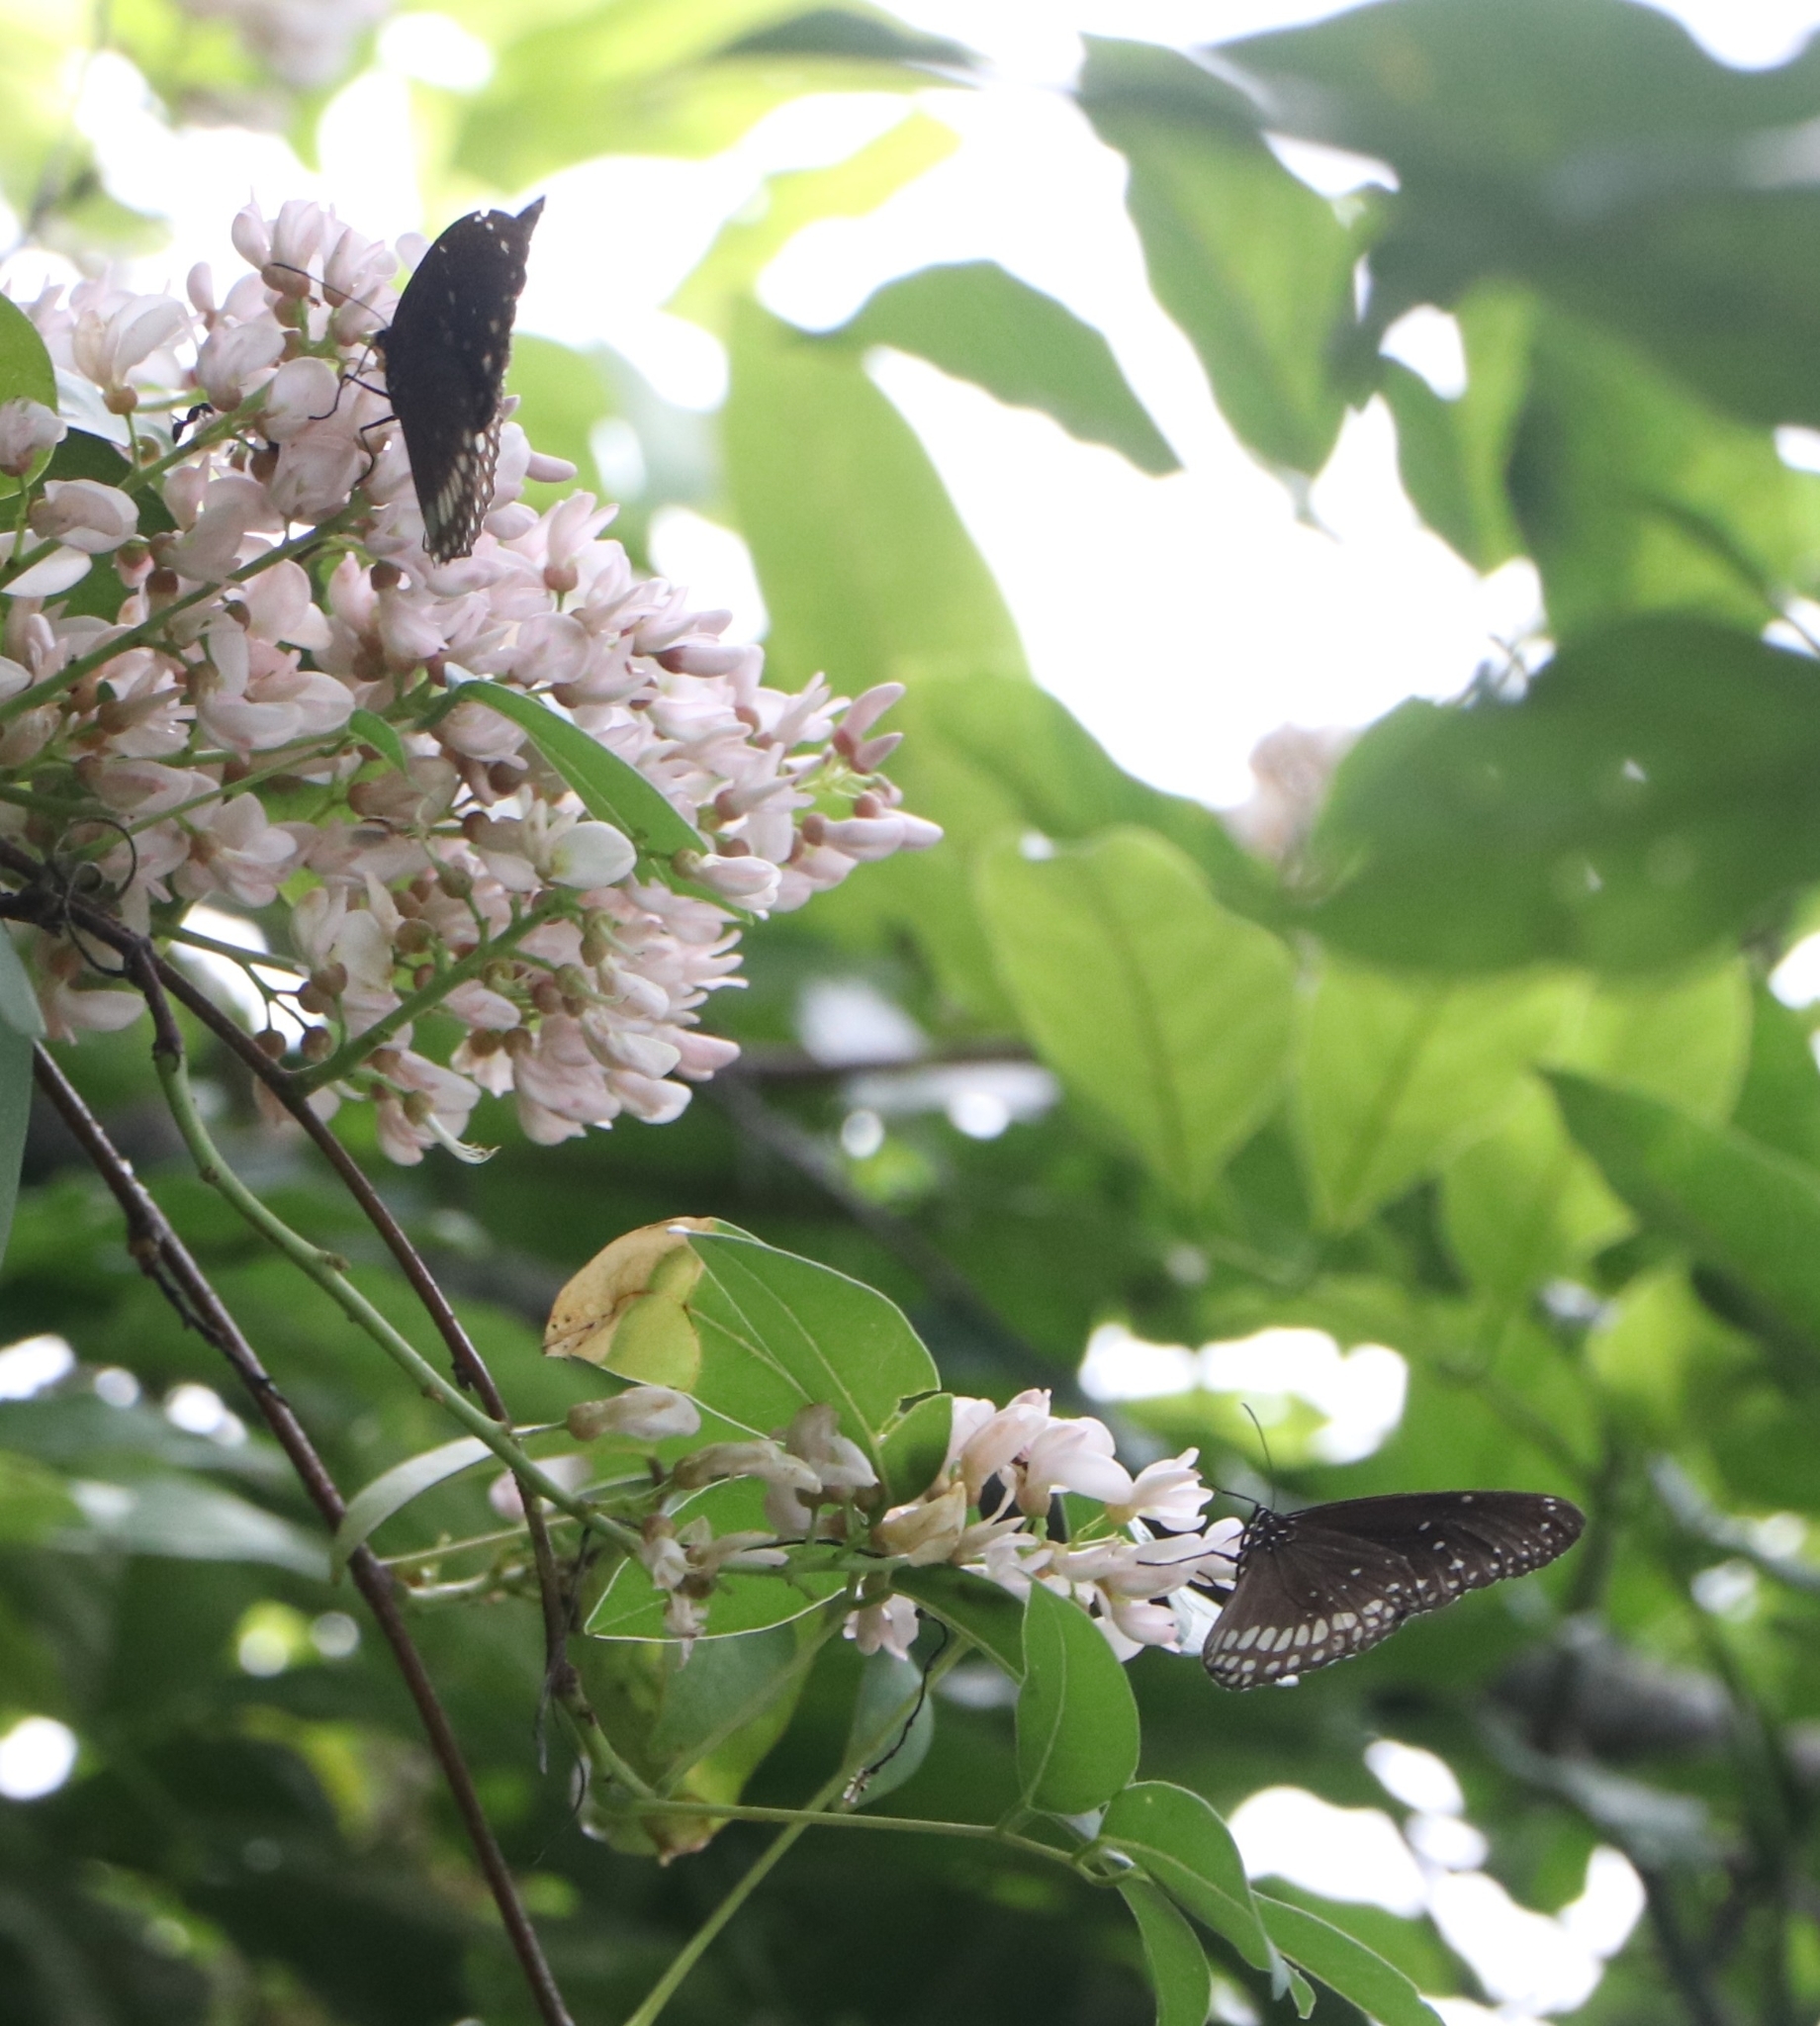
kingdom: Animalia
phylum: Arthropoda
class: Insecta
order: Lepidoptera
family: Nymphalidae
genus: Euploea
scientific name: Euploea core
